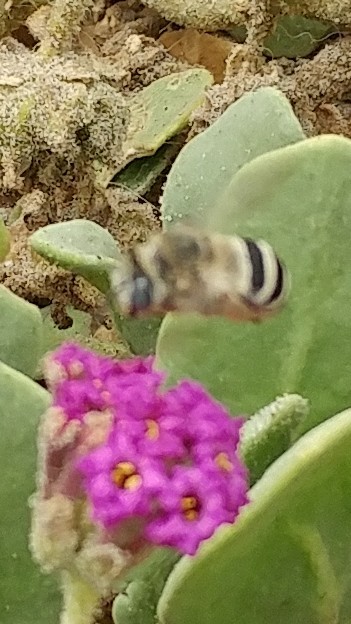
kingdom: Animalia
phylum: Arthropoda
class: Insecta
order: Hymenoptera
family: Apidae
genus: Anthophora
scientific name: Anthophora urbana
